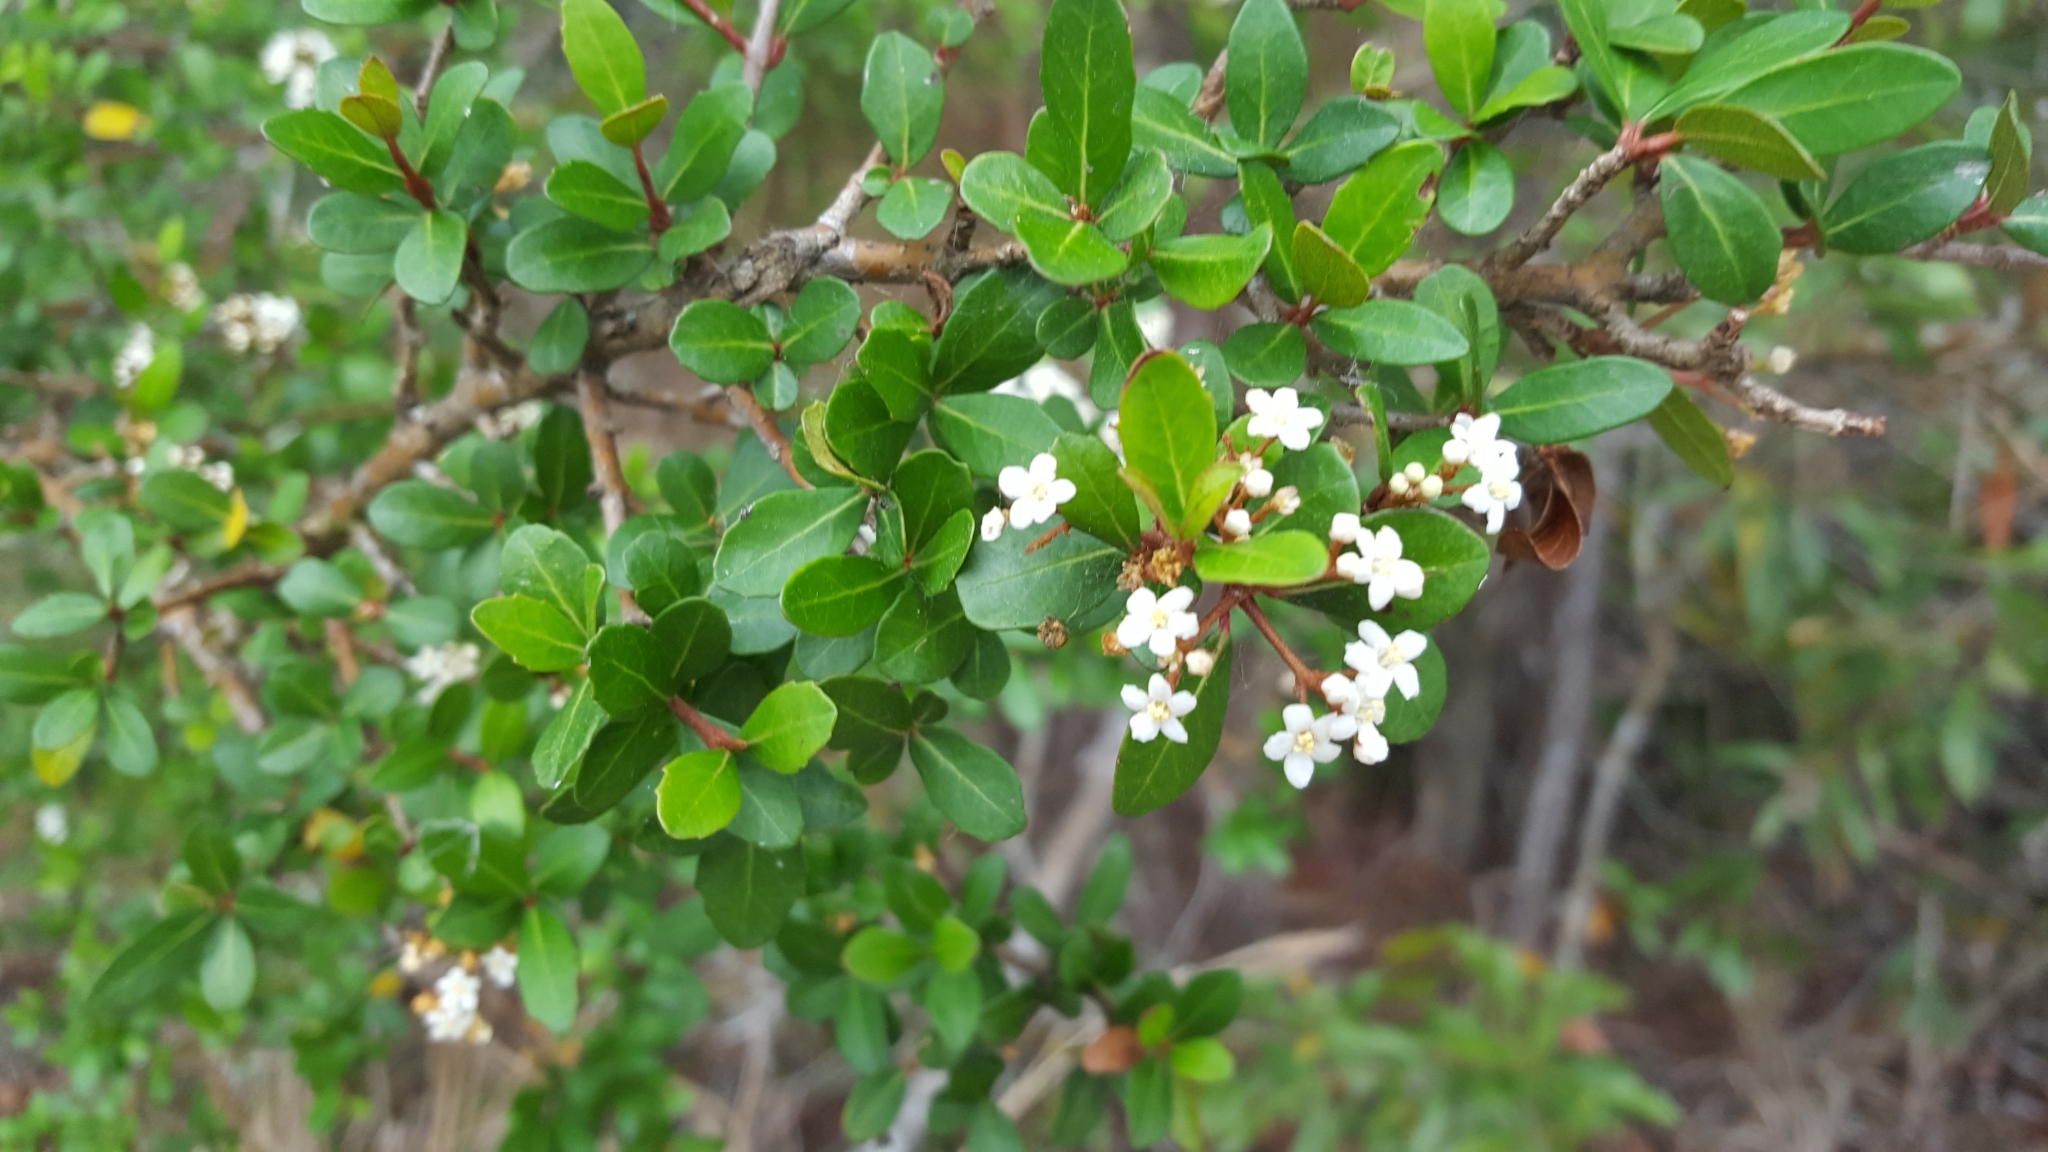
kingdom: Plantae
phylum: Tracheophyta
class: Magnoliopsida
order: Dipsacales
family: Viburnaceae
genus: Viburnum
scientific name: Viburnum obovatum
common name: Walter's viburnum
